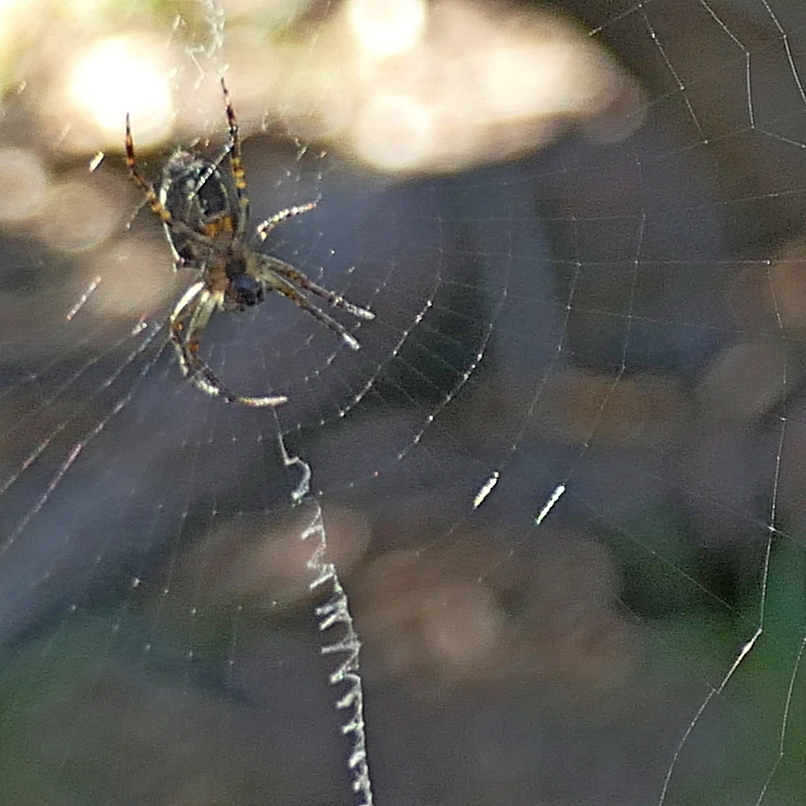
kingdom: Animalia
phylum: Arthropoda
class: Arachnida
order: Araneae
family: Araneidae
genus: Plebs
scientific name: Plebs eburnus
